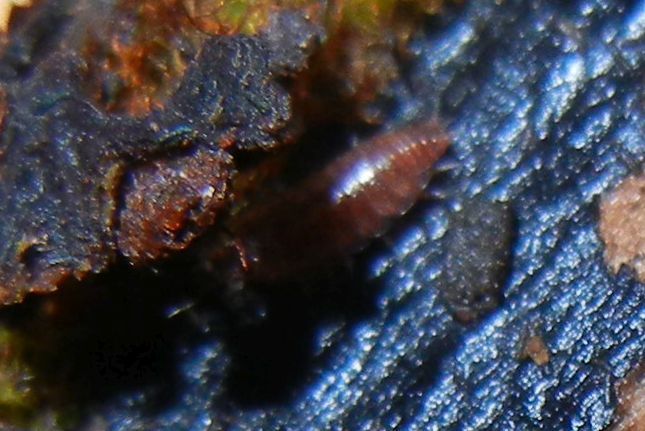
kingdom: Animalia
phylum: Arthropoda
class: Malacostraca
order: Isopoda
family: Trichoniscidae
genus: Trichoniscus
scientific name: Trichoniscus
